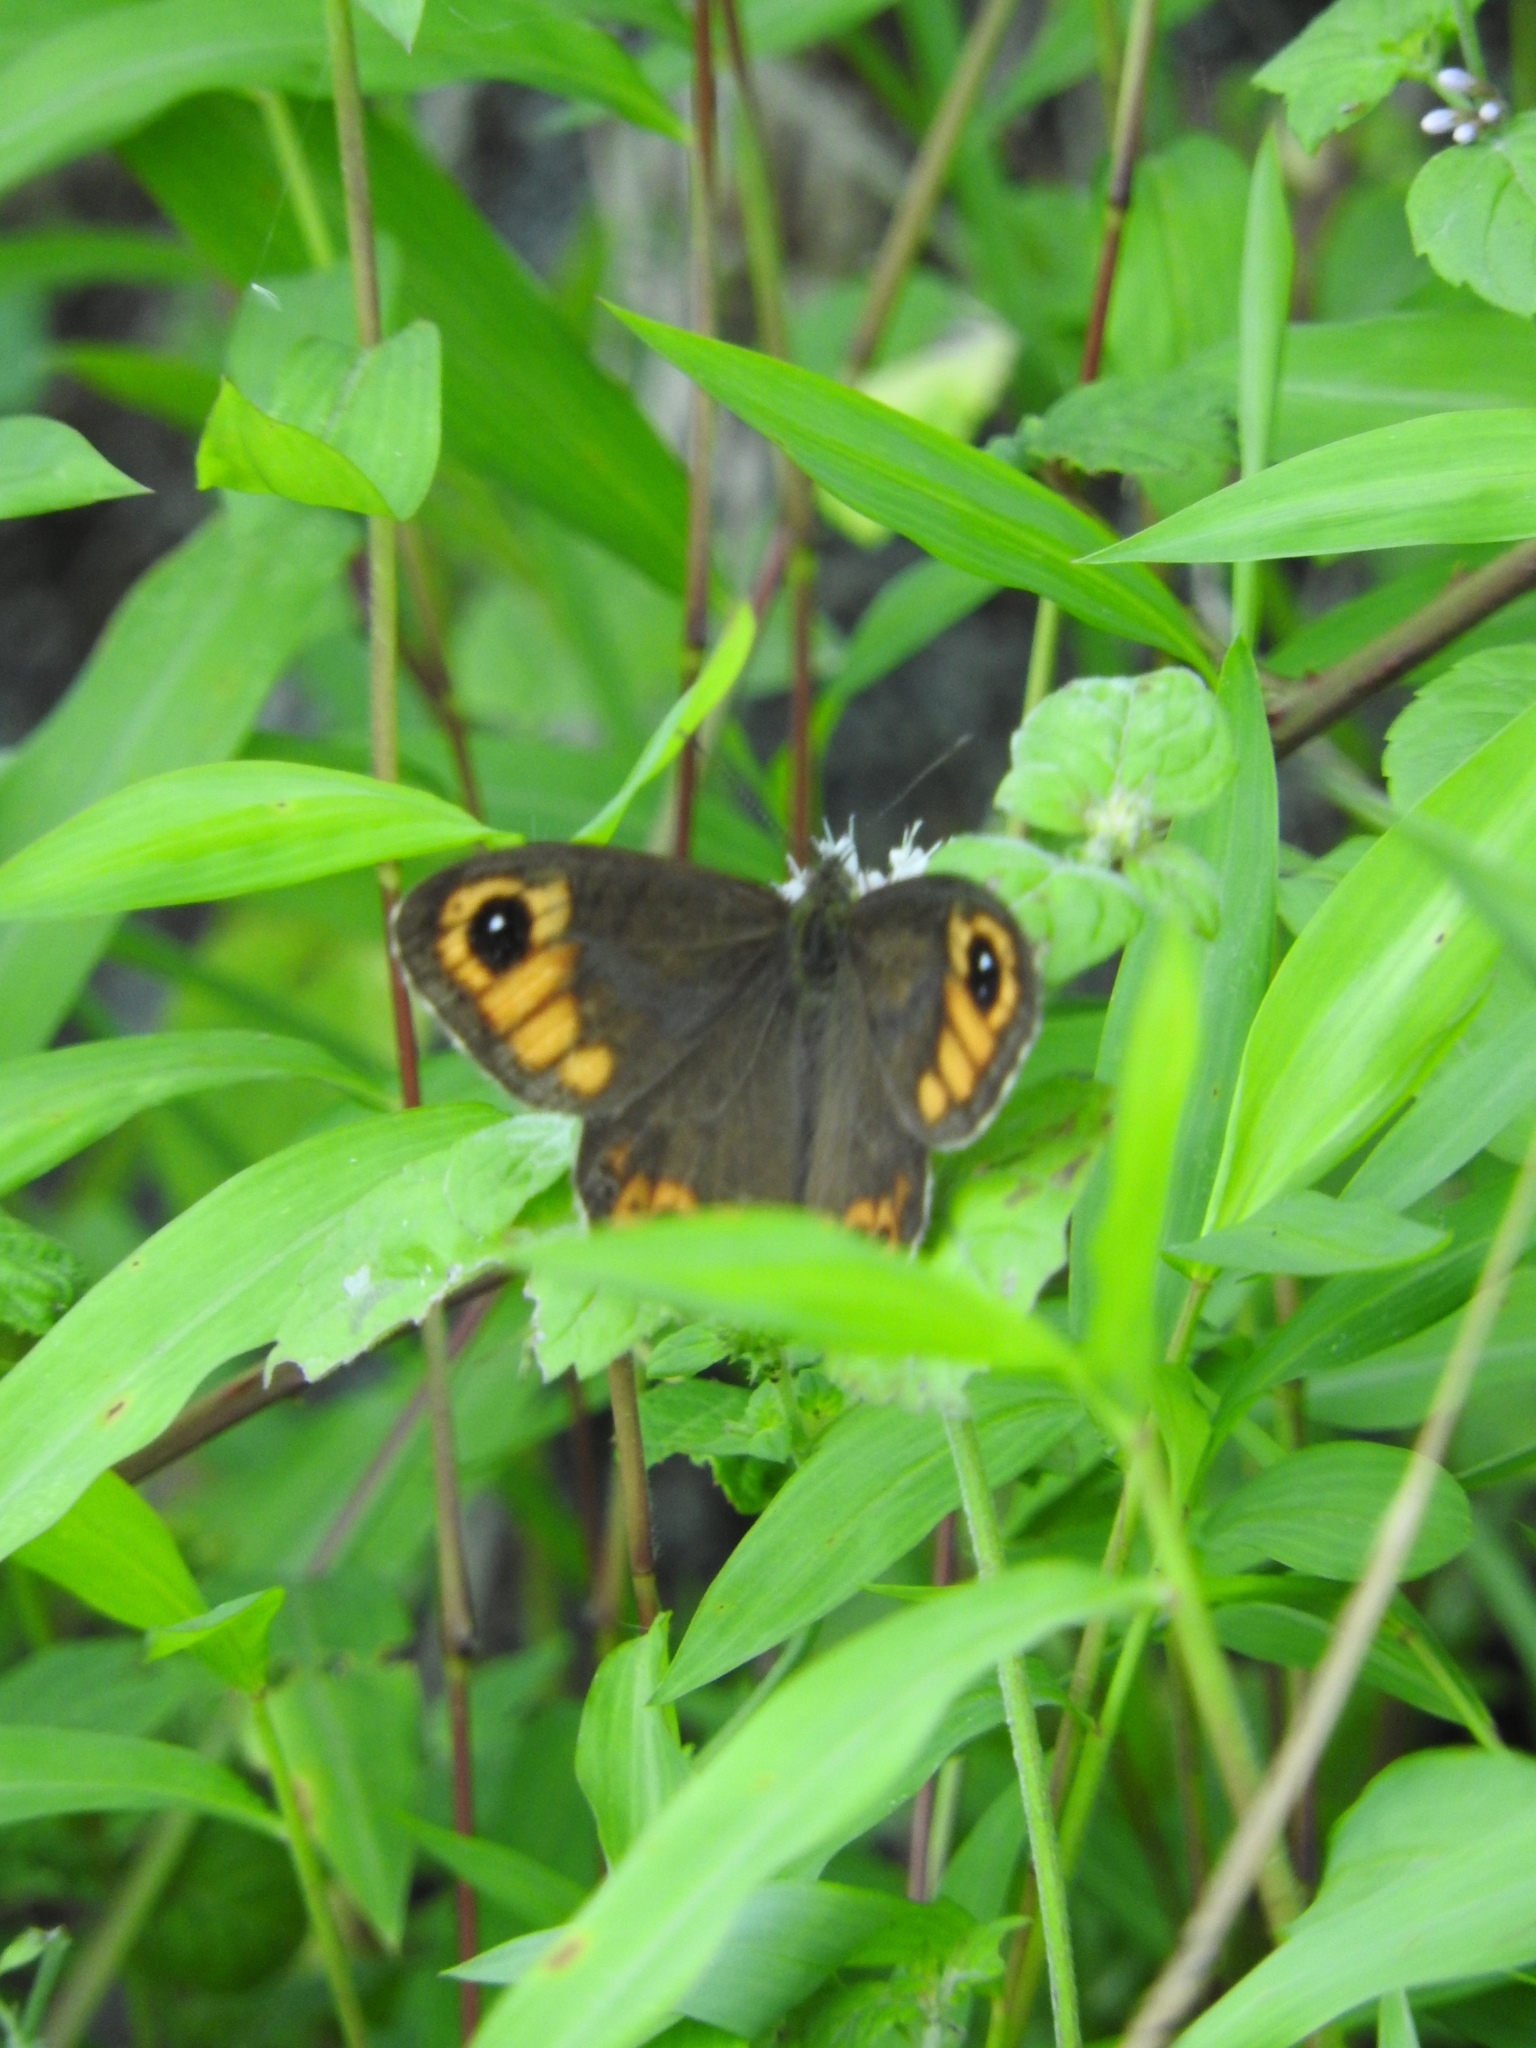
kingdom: Animalia
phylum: Arthropoda
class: Insecta
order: Lepidoptera
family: Nymphalidae
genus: Lasiommata
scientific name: Lasiommata
